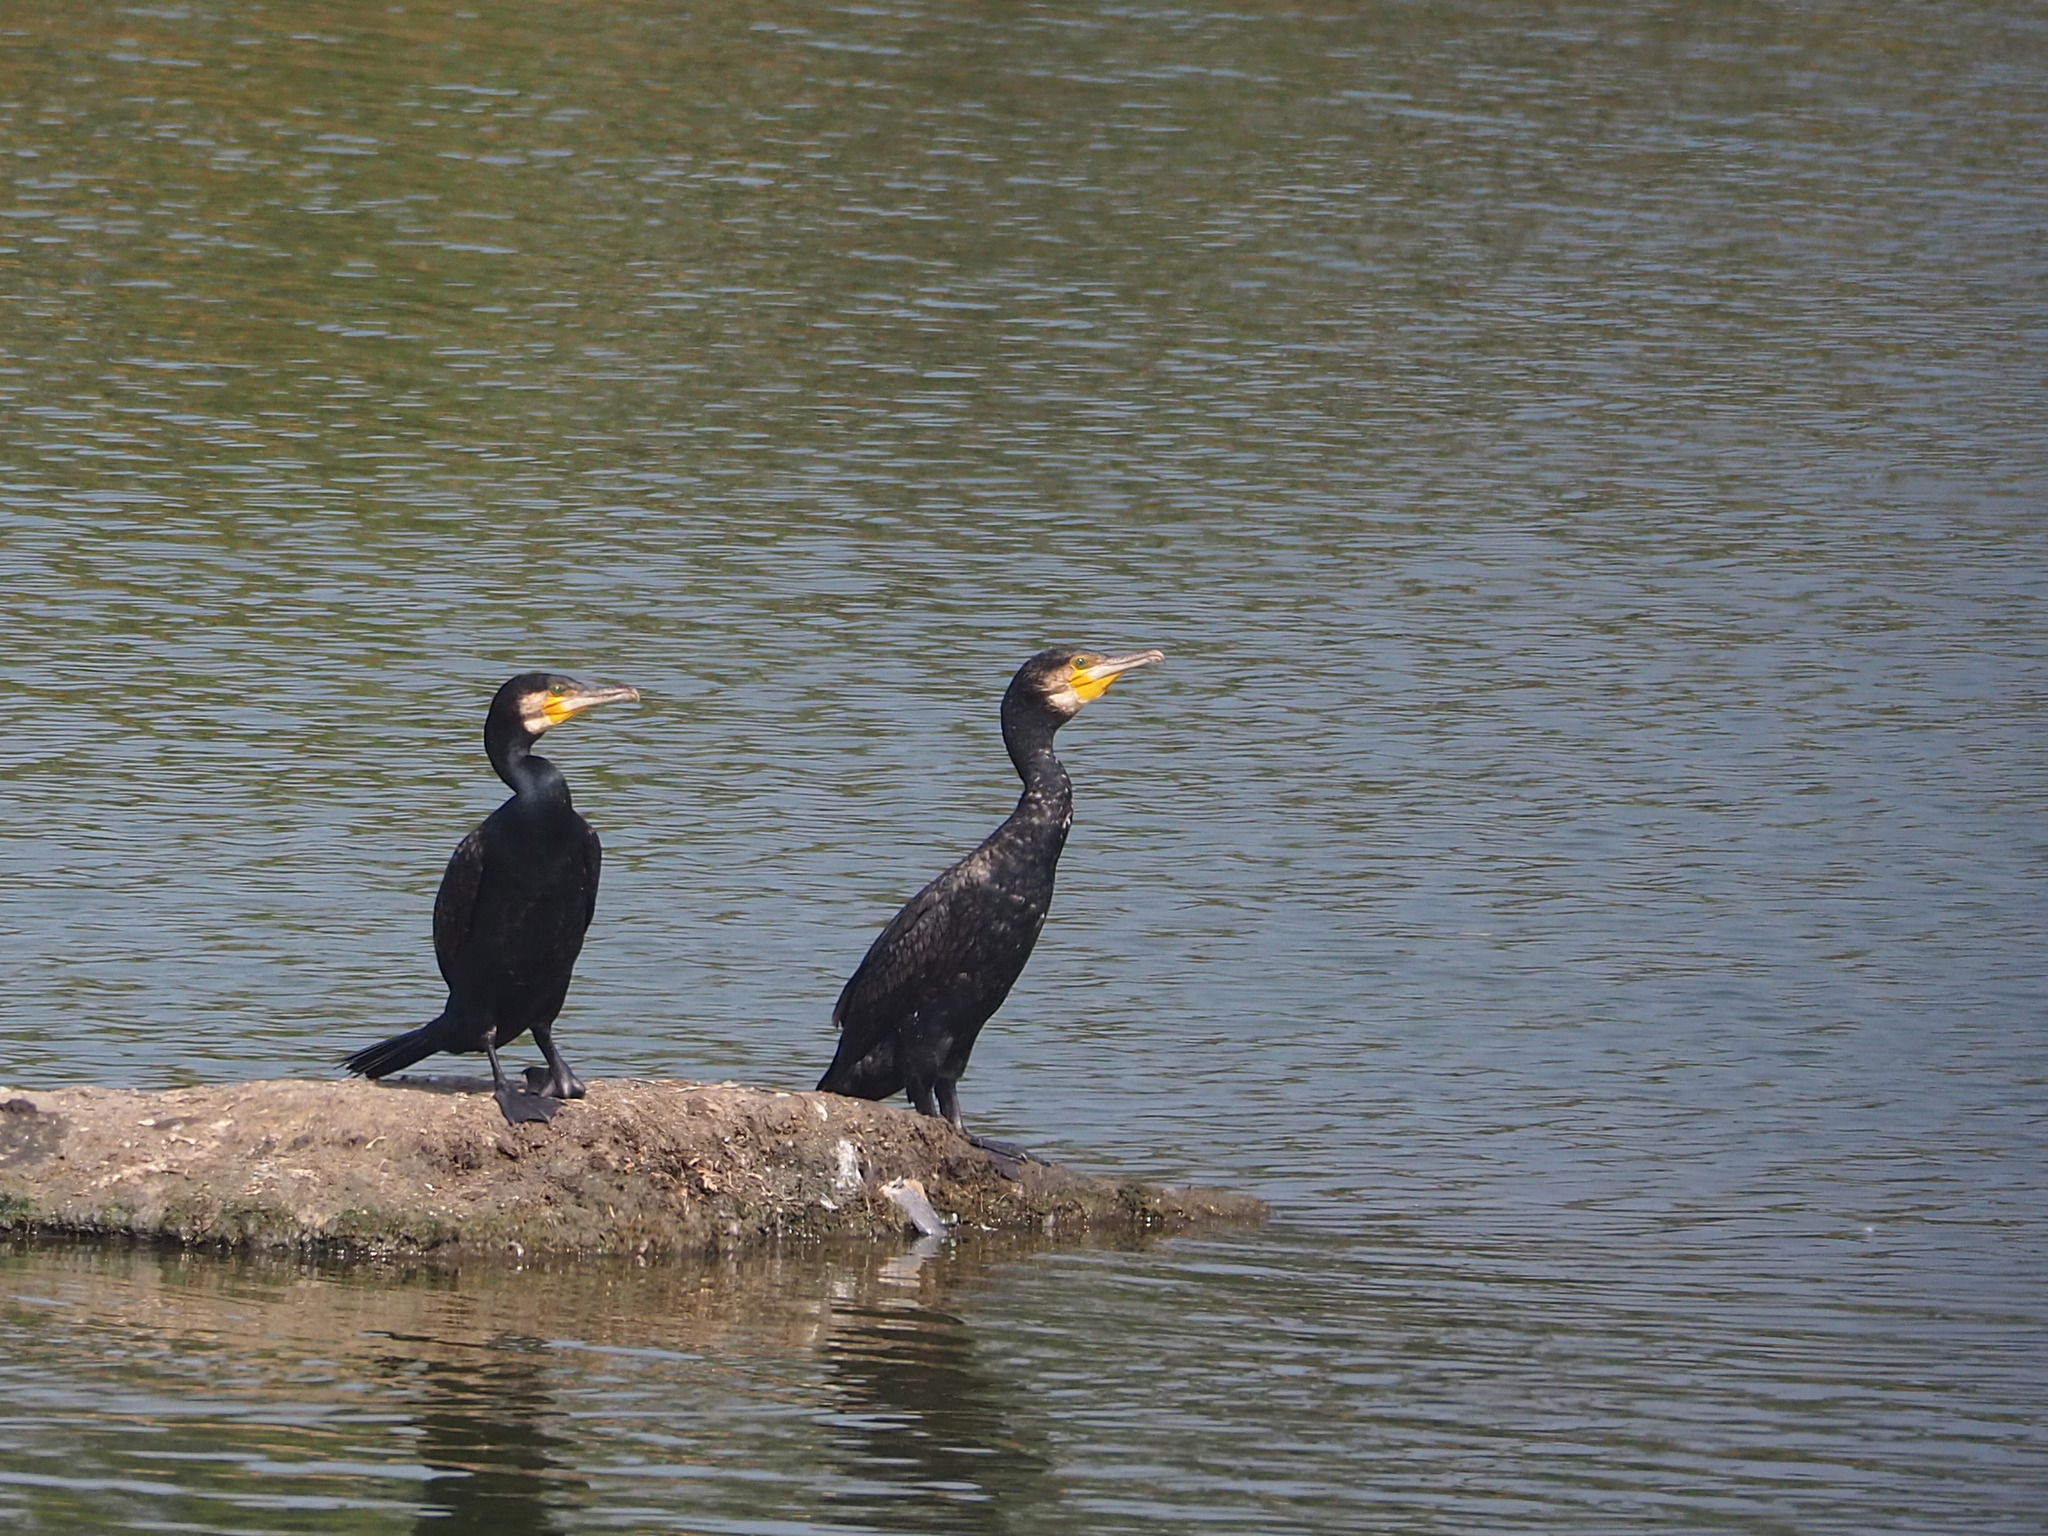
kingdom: Animalia
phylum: Chordata
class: Aves
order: Suliformes
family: Phalacrocoracidae
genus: Phalacrocorax
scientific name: Phalacrocorax carbo
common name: Great cormorant
